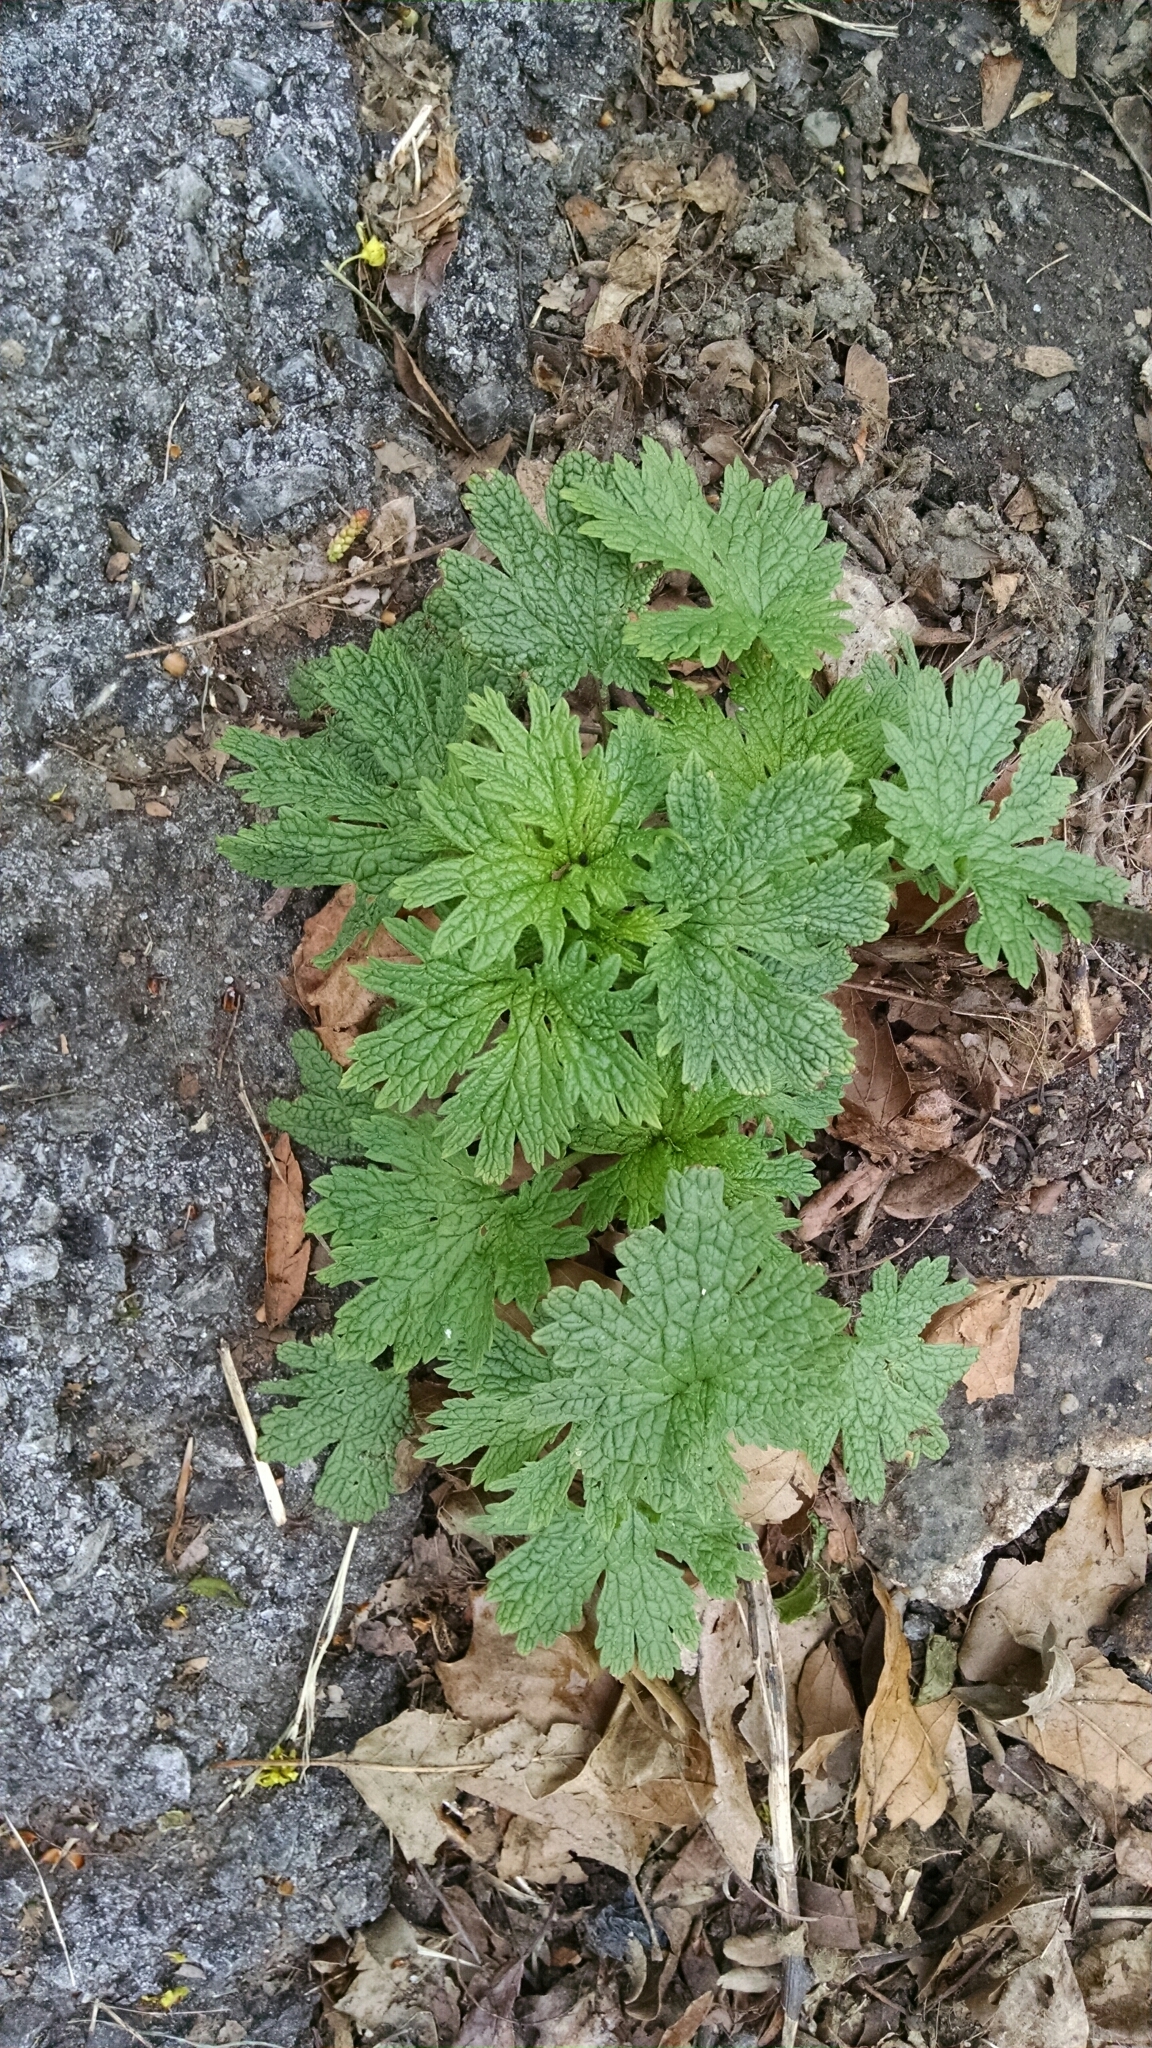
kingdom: Plantae
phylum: Tracheophyta
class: Magnoliopsida
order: Lamiales
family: Lamiaceae
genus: Leonurus
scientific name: Leonurus cardiaca
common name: Motherwort
